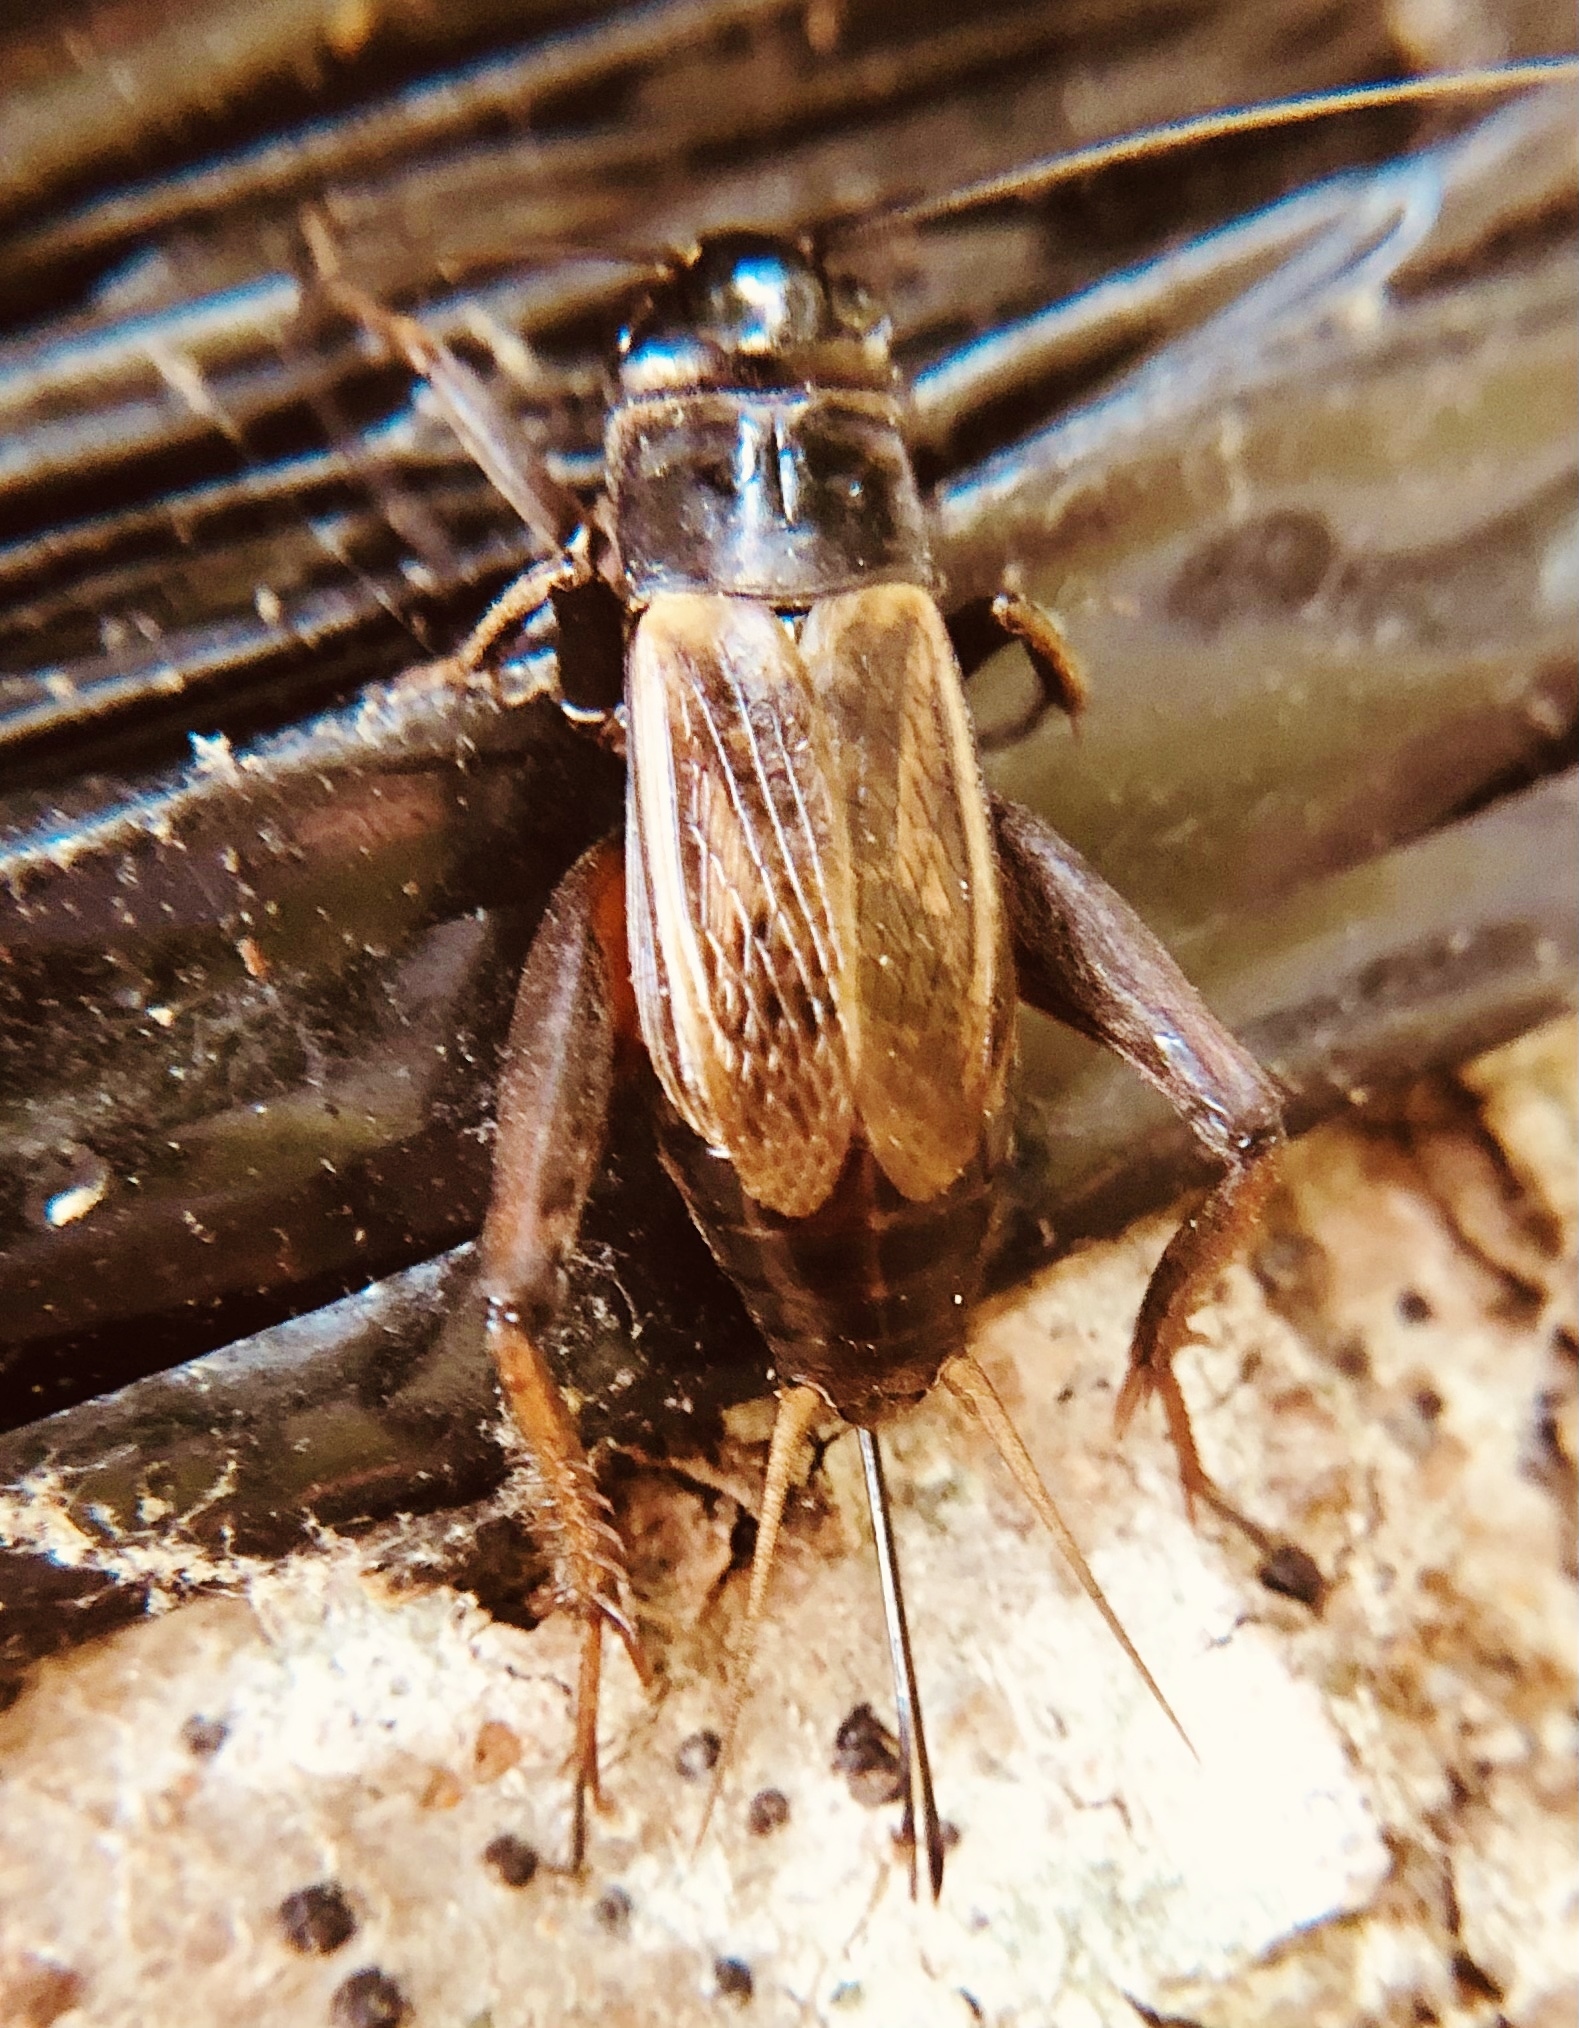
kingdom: Animalia
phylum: Arthropoda
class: Insecta
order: Orthoptera
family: Gryllidae
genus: Gryllus
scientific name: Gryllus fultoni
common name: Southern wood cricket
